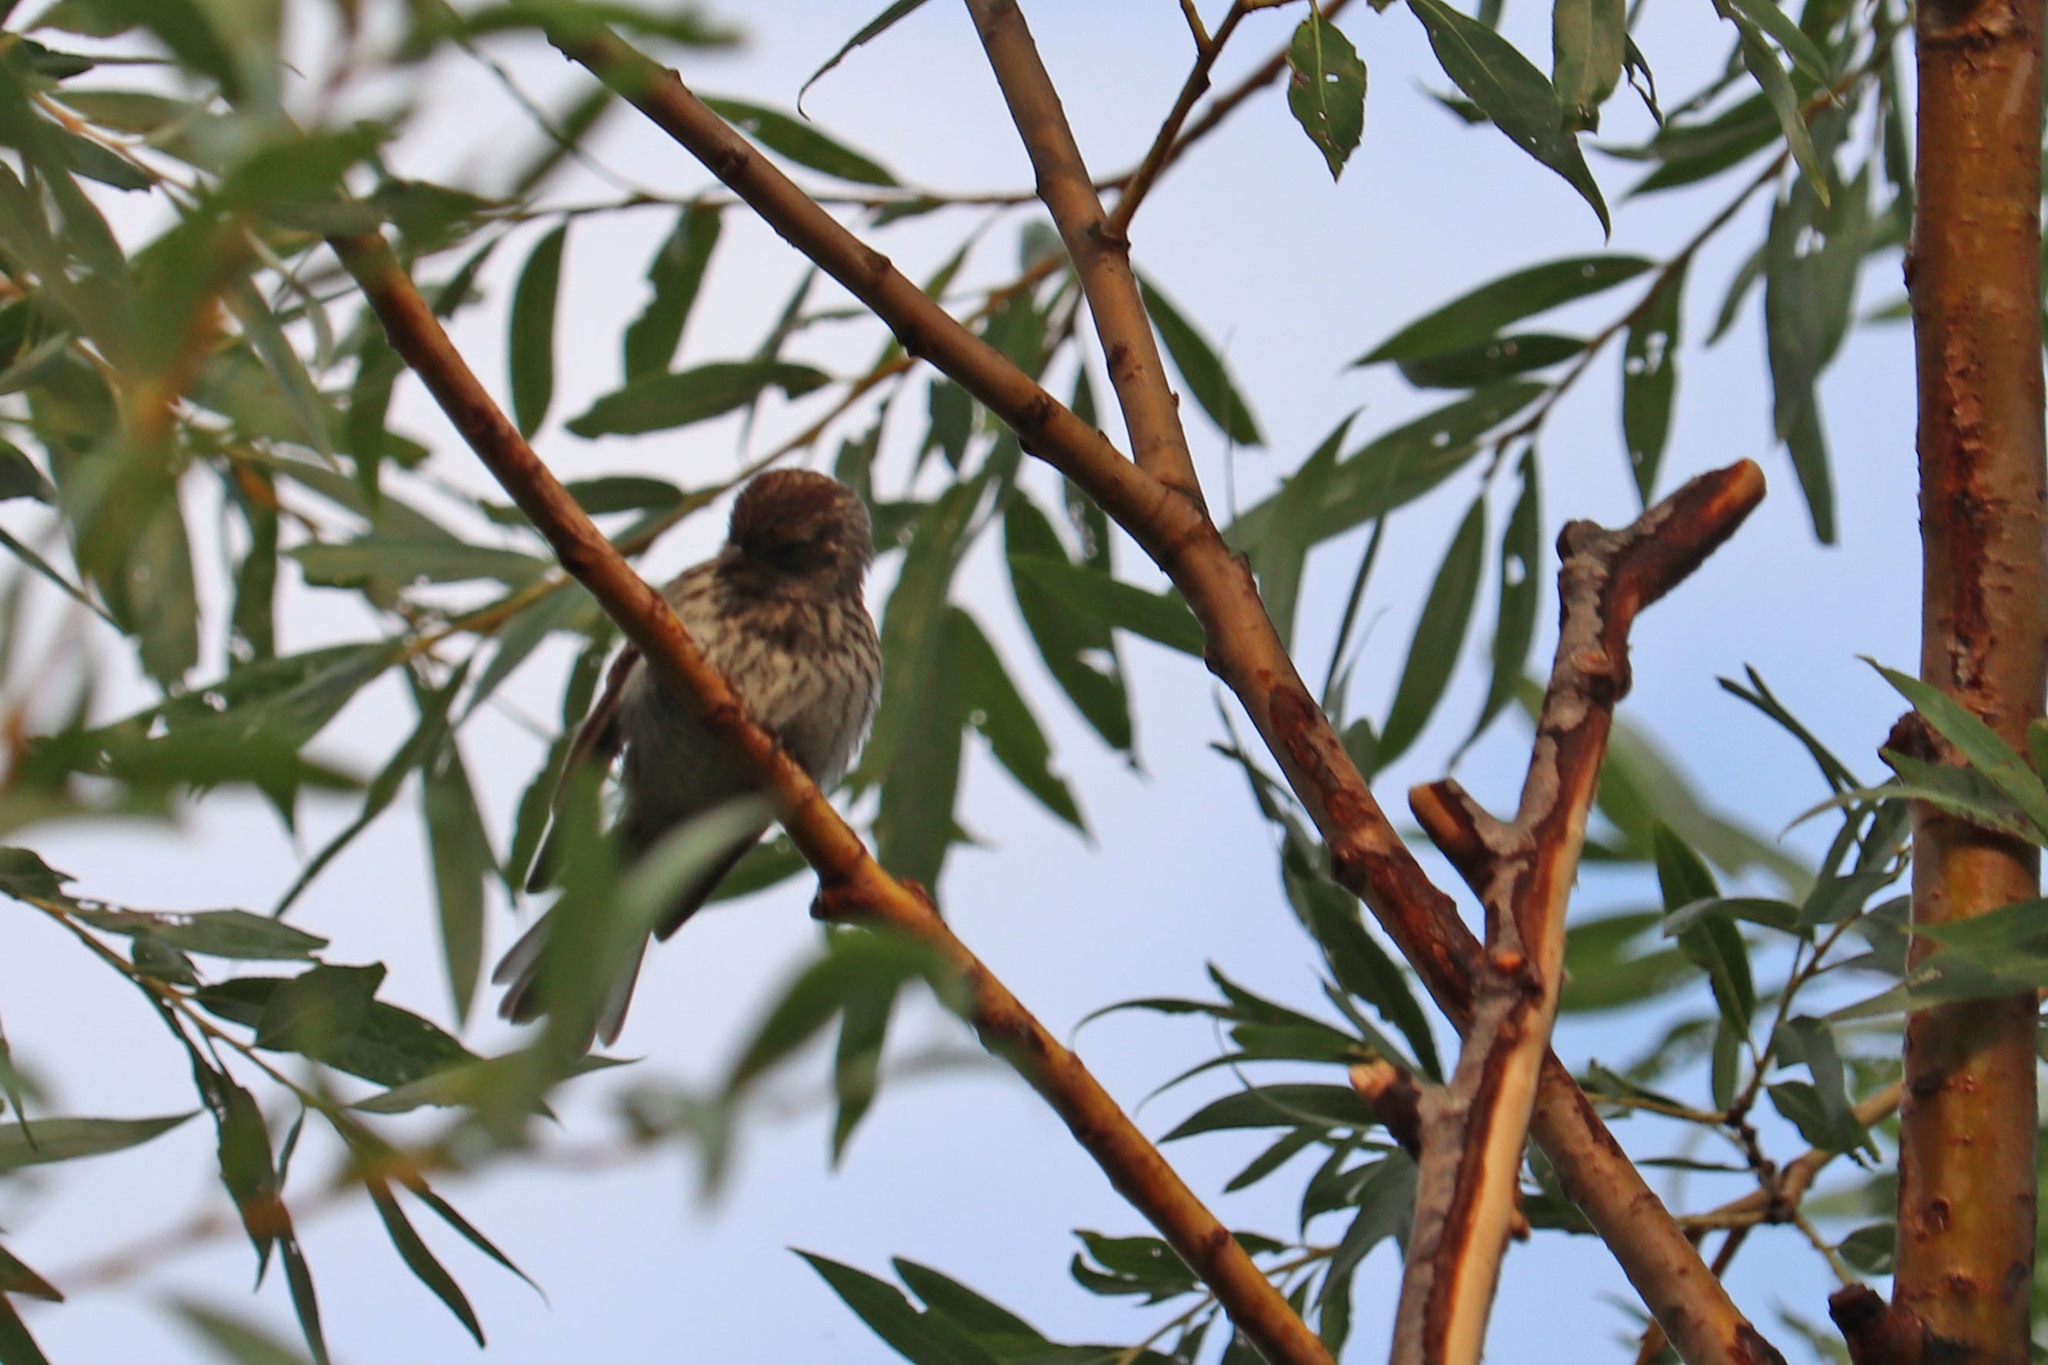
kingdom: Animalia
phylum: Chordata
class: Aves
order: Passeriformes
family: Passerellidae
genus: Spizella
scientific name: Spizella passerina
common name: Chipping sparrow
